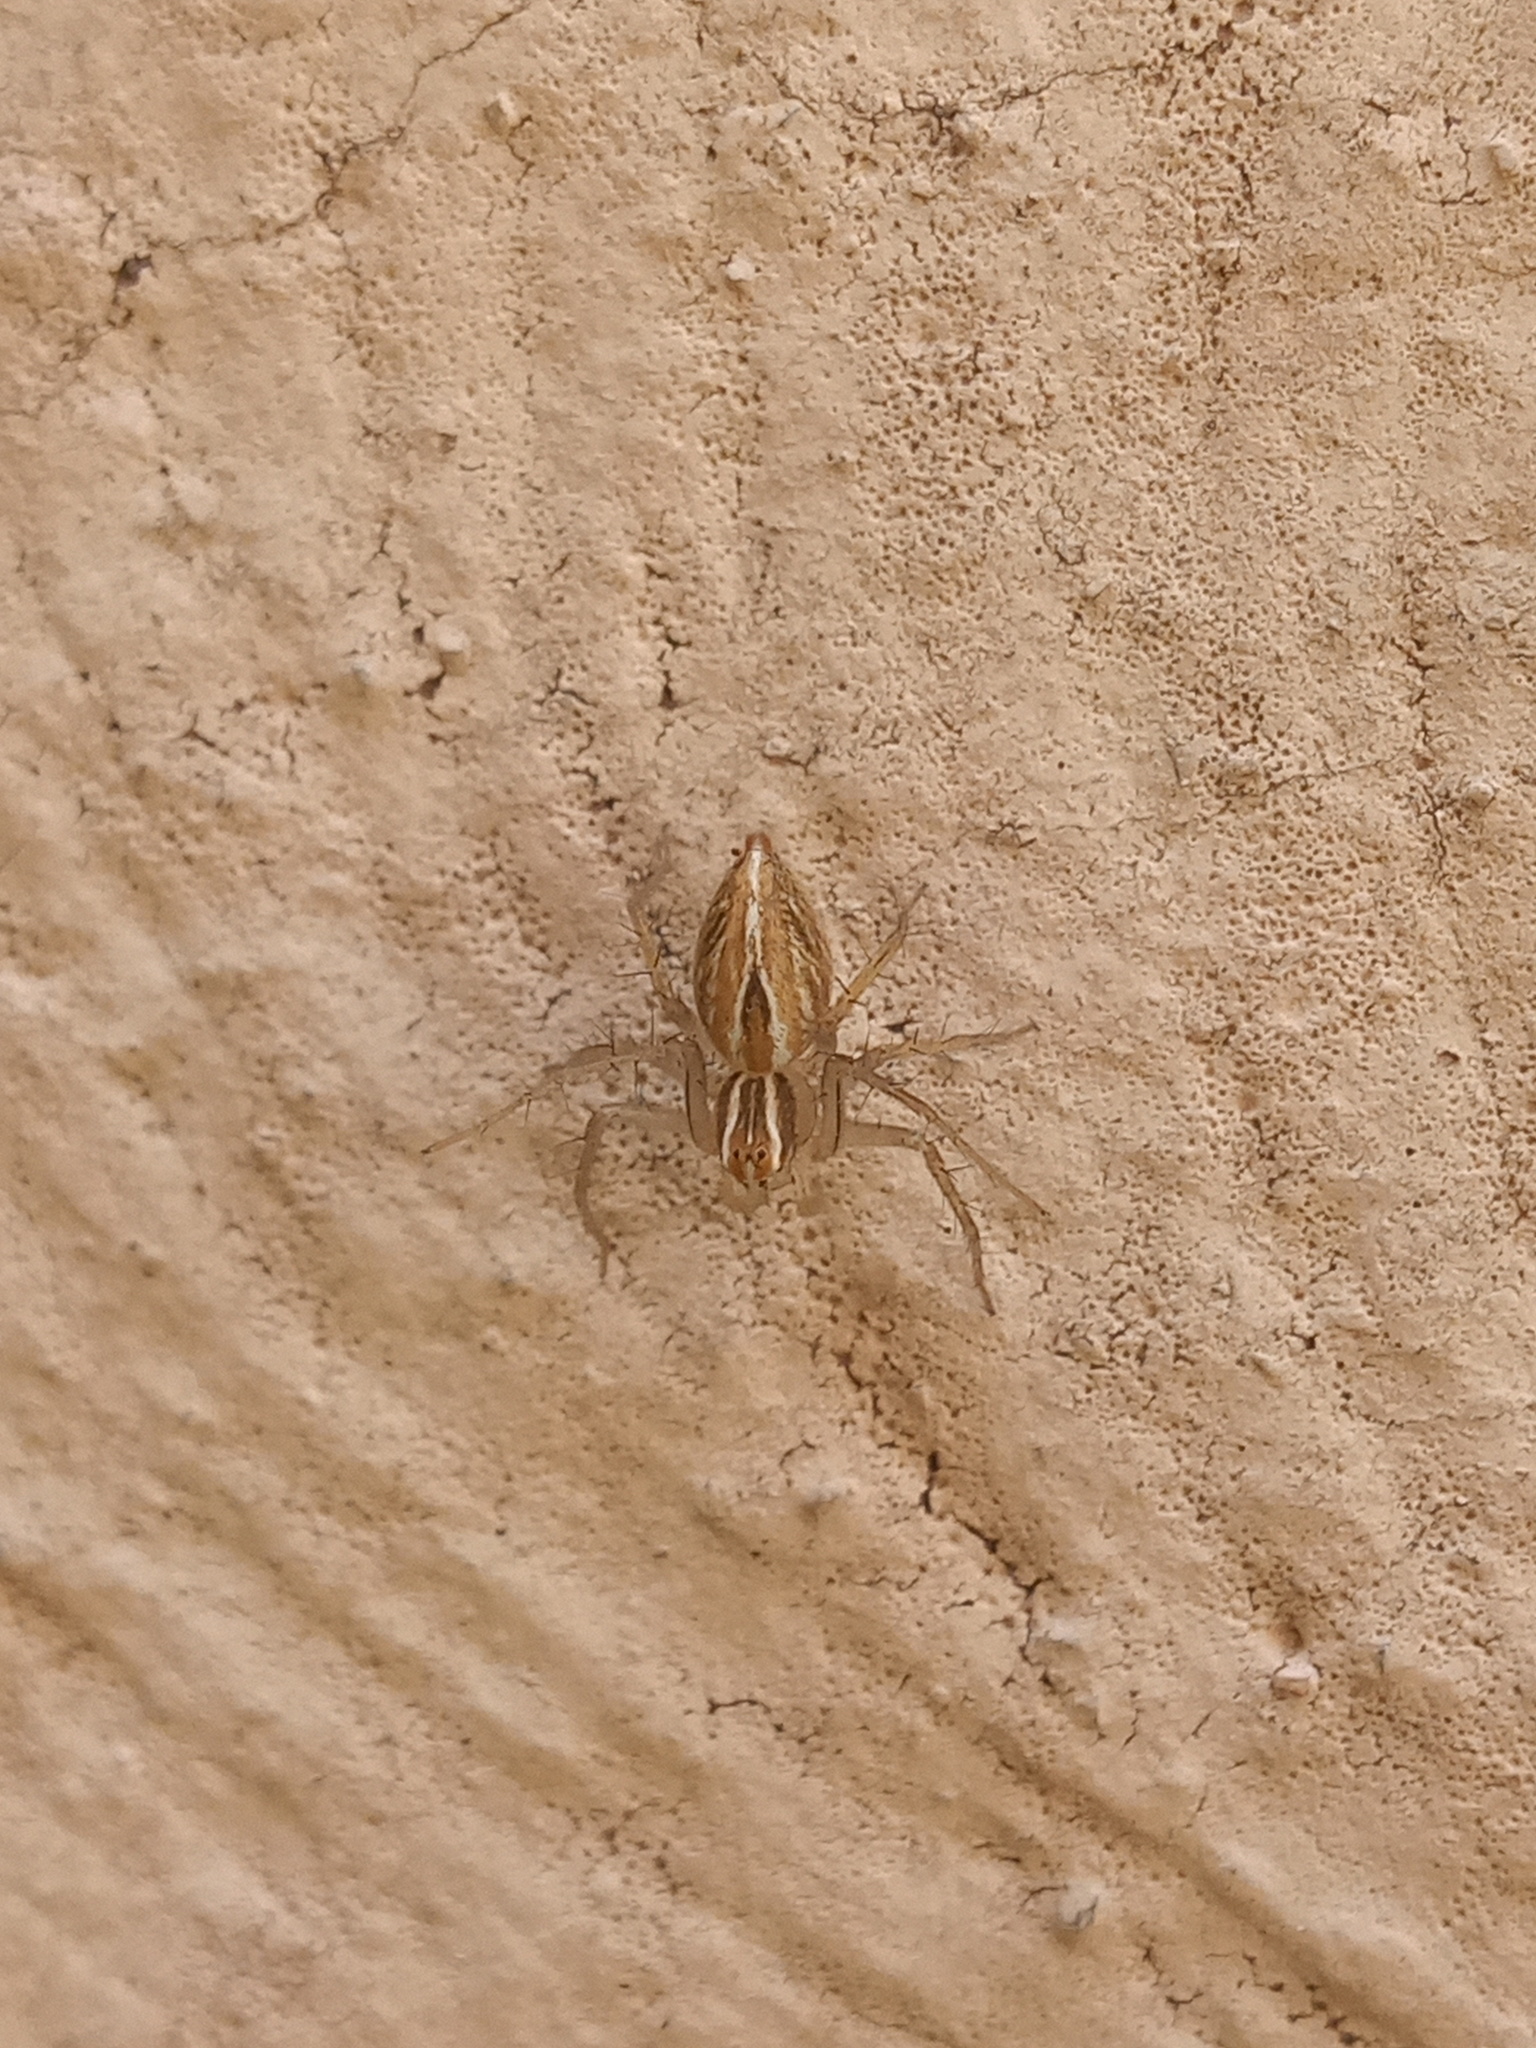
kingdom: Animalia
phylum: Arthropoda
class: Arachnida
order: Araneae
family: Oxyopidae
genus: Oxyopes
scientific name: Oxyopes salticus
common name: Lynx spiders
